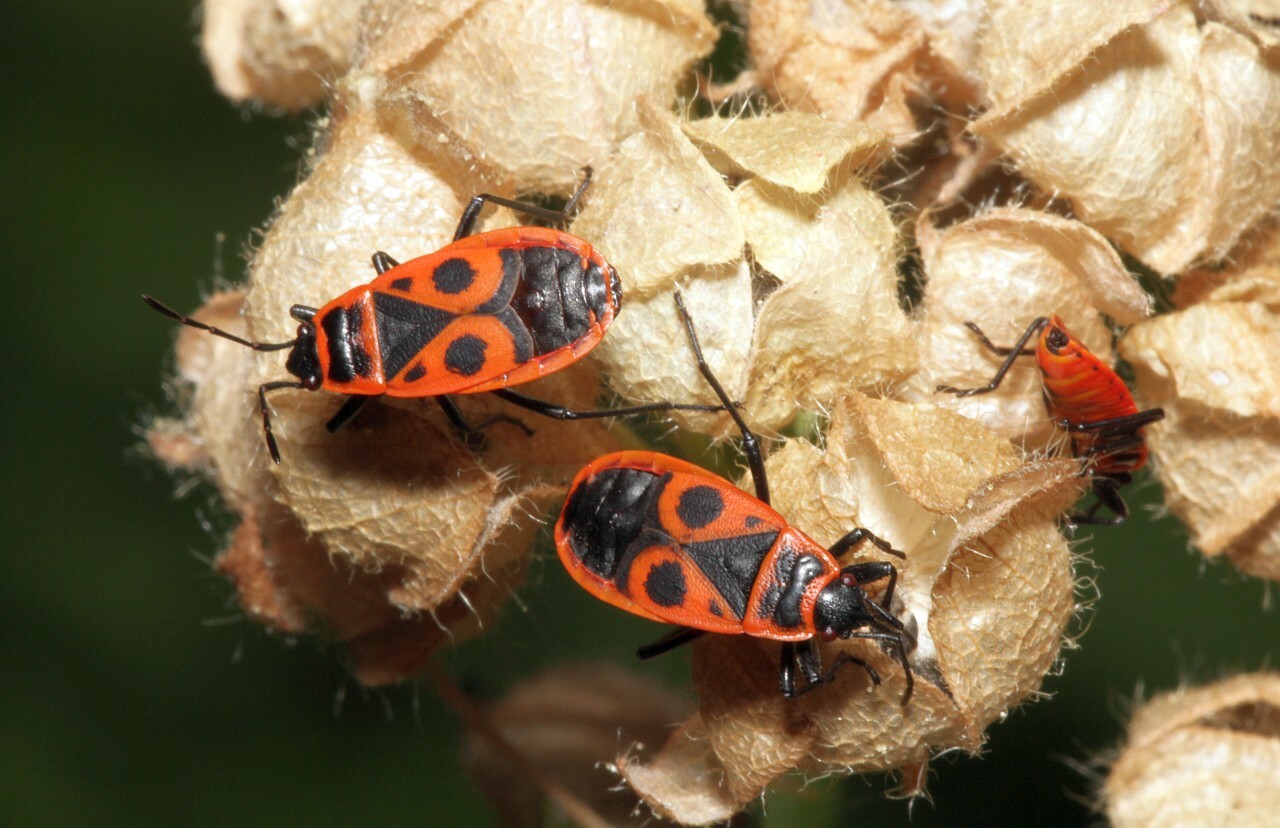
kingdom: Animalia
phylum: Arthropoda
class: Insecta
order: Hemiptera
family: Pyrrhocoridae
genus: Pyrrhocoris
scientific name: Pyrrhocoris apterus
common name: Firebug
